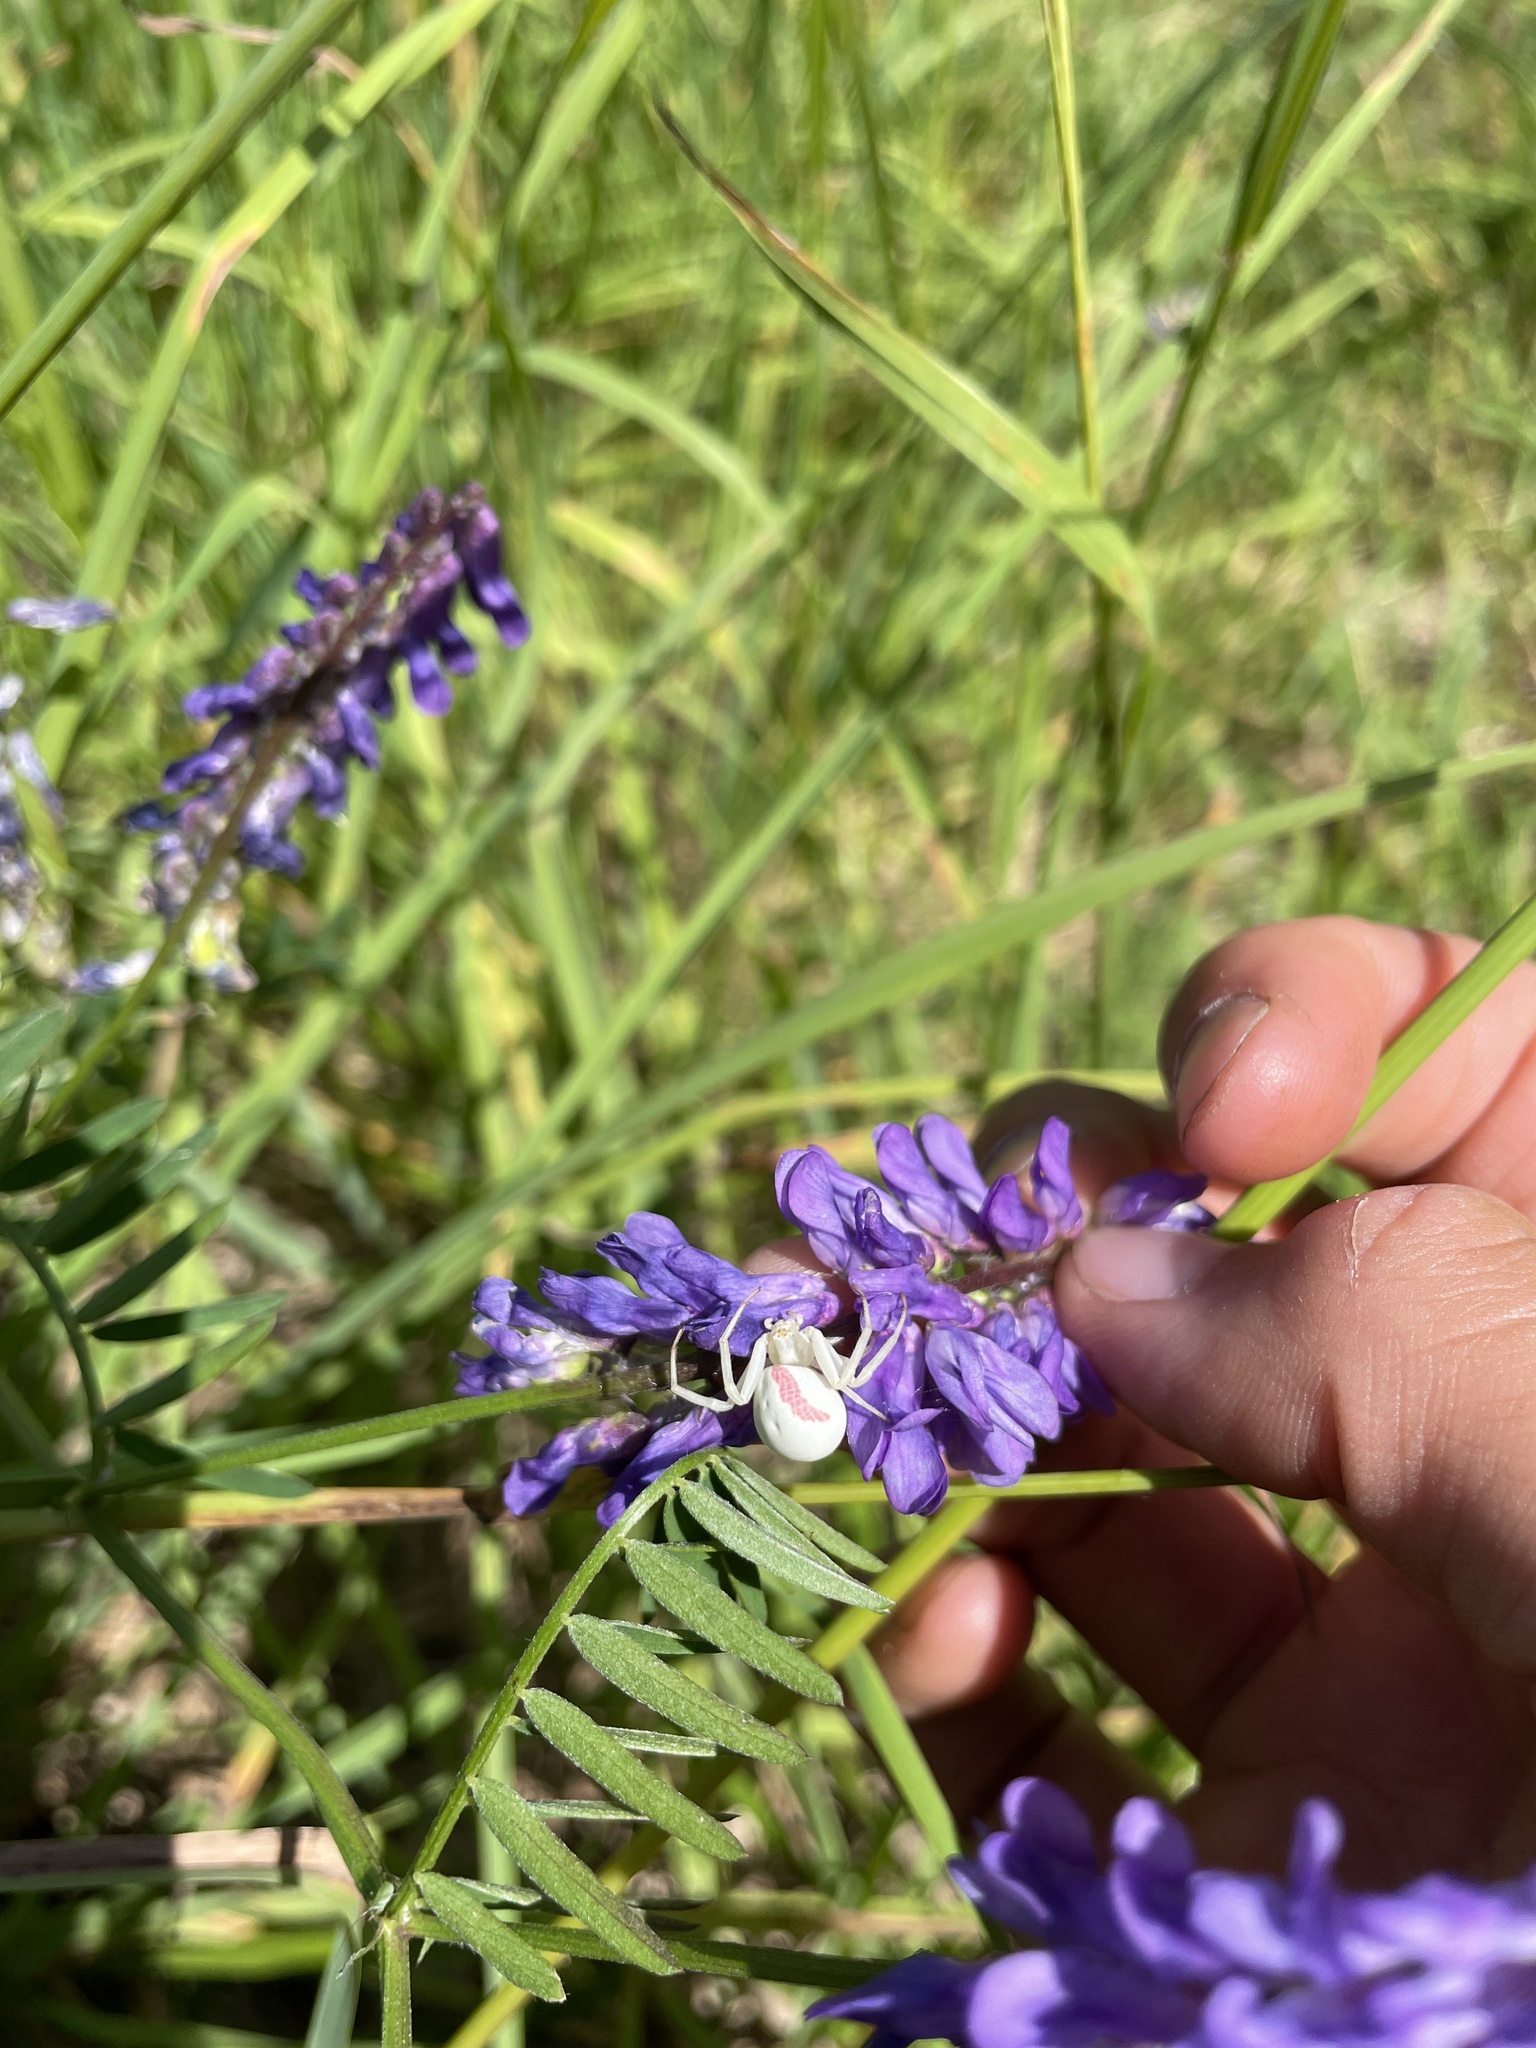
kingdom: Animalia
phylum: Arthropoda
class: Arachnida
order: Araneae
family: Thomisidae
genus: Misumena
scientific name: Misumena vatia
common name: Goldenrod crab spider
